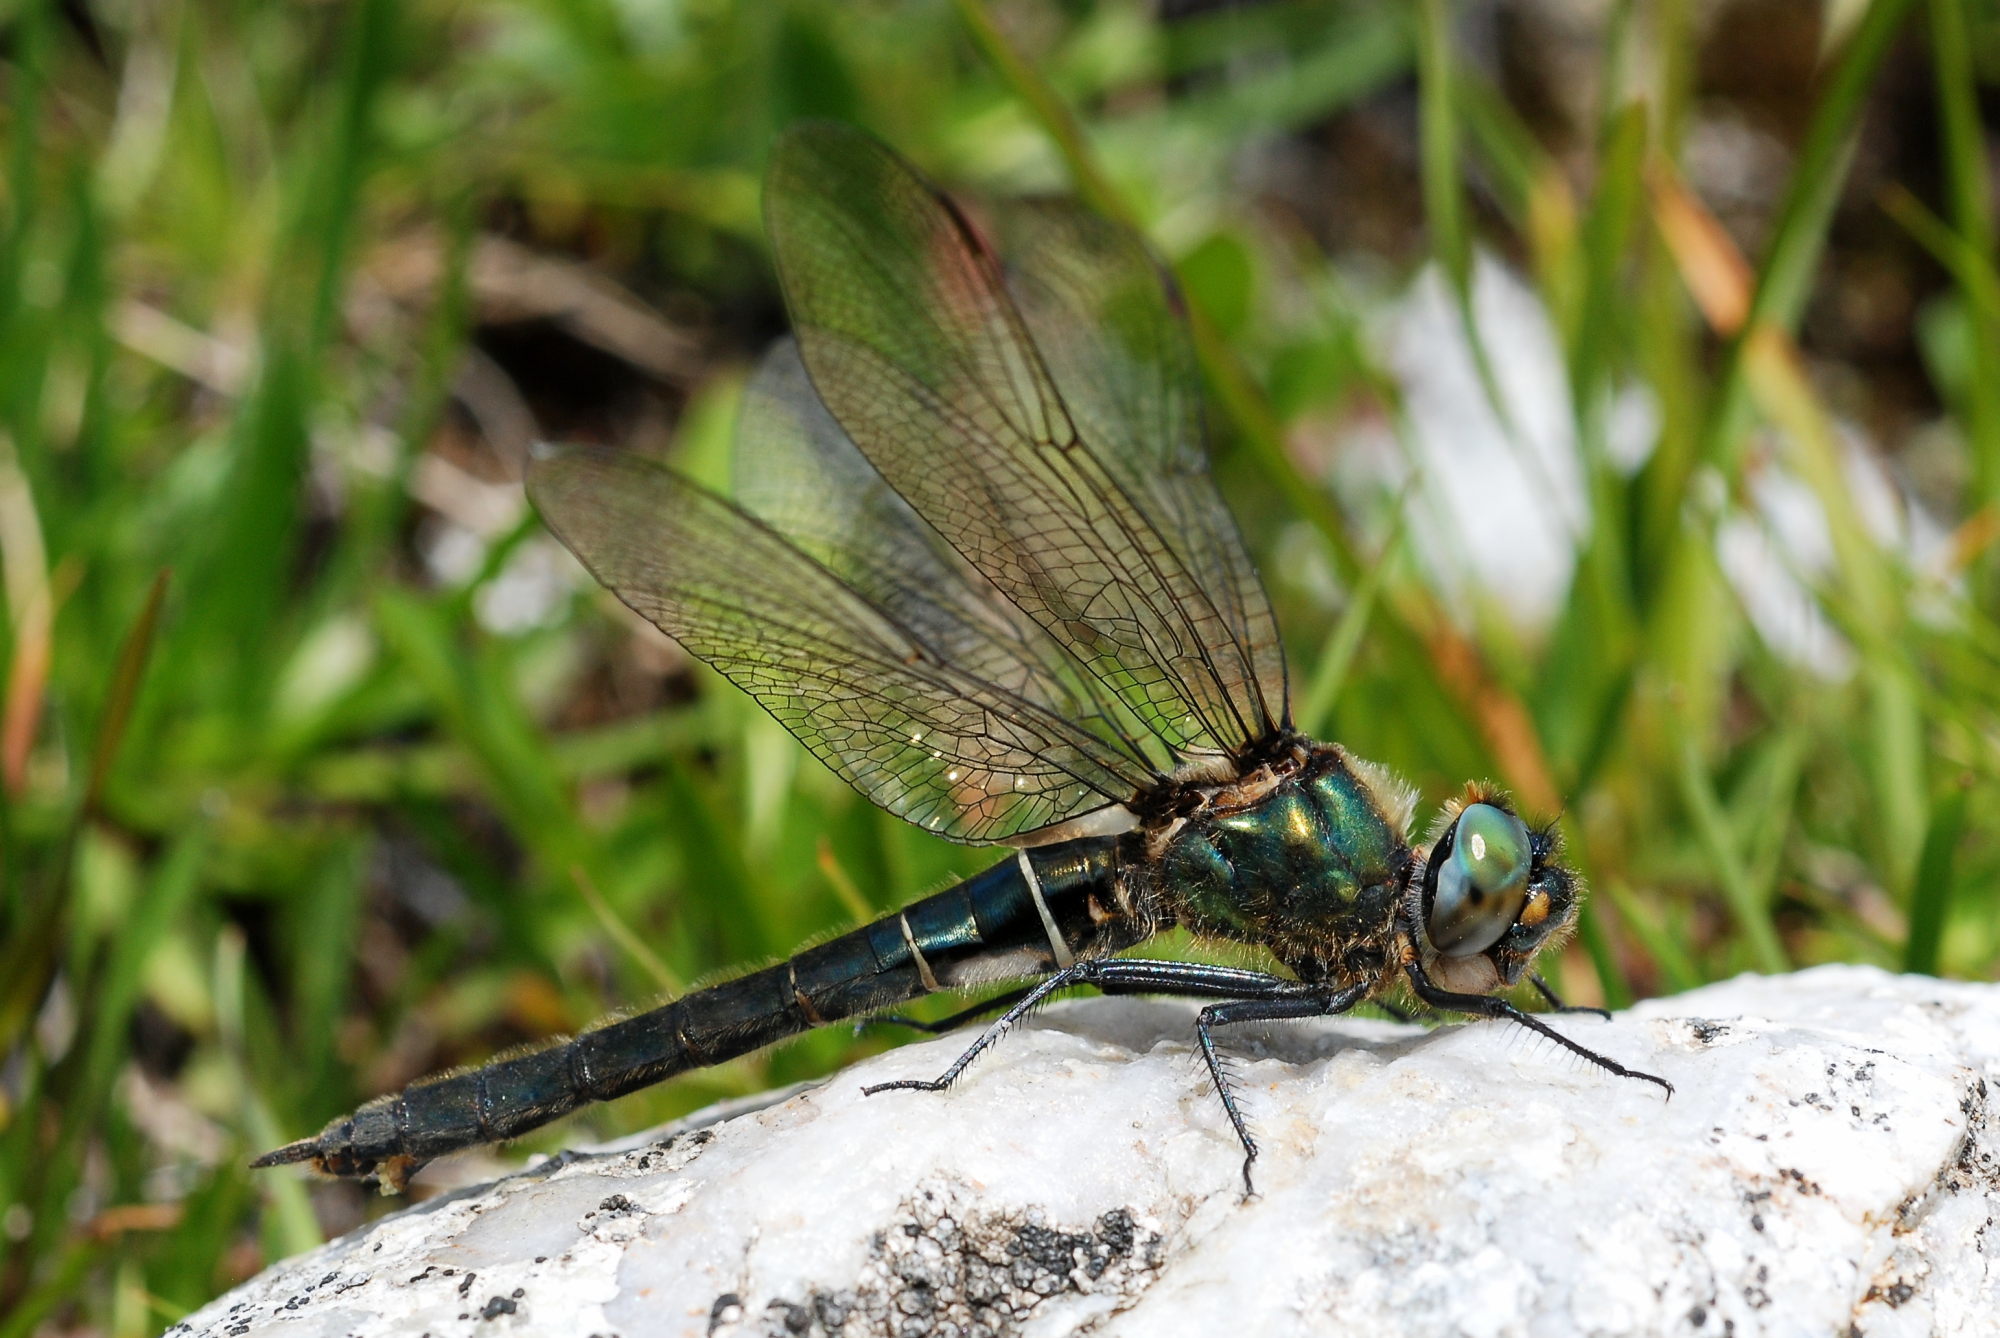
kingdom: Animalia
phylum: Arthropoda
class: Insecta
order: Odonata
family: Corduliidae
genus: Somatochlora
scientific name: Somatochlora alpestris
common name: Alpine emerald
